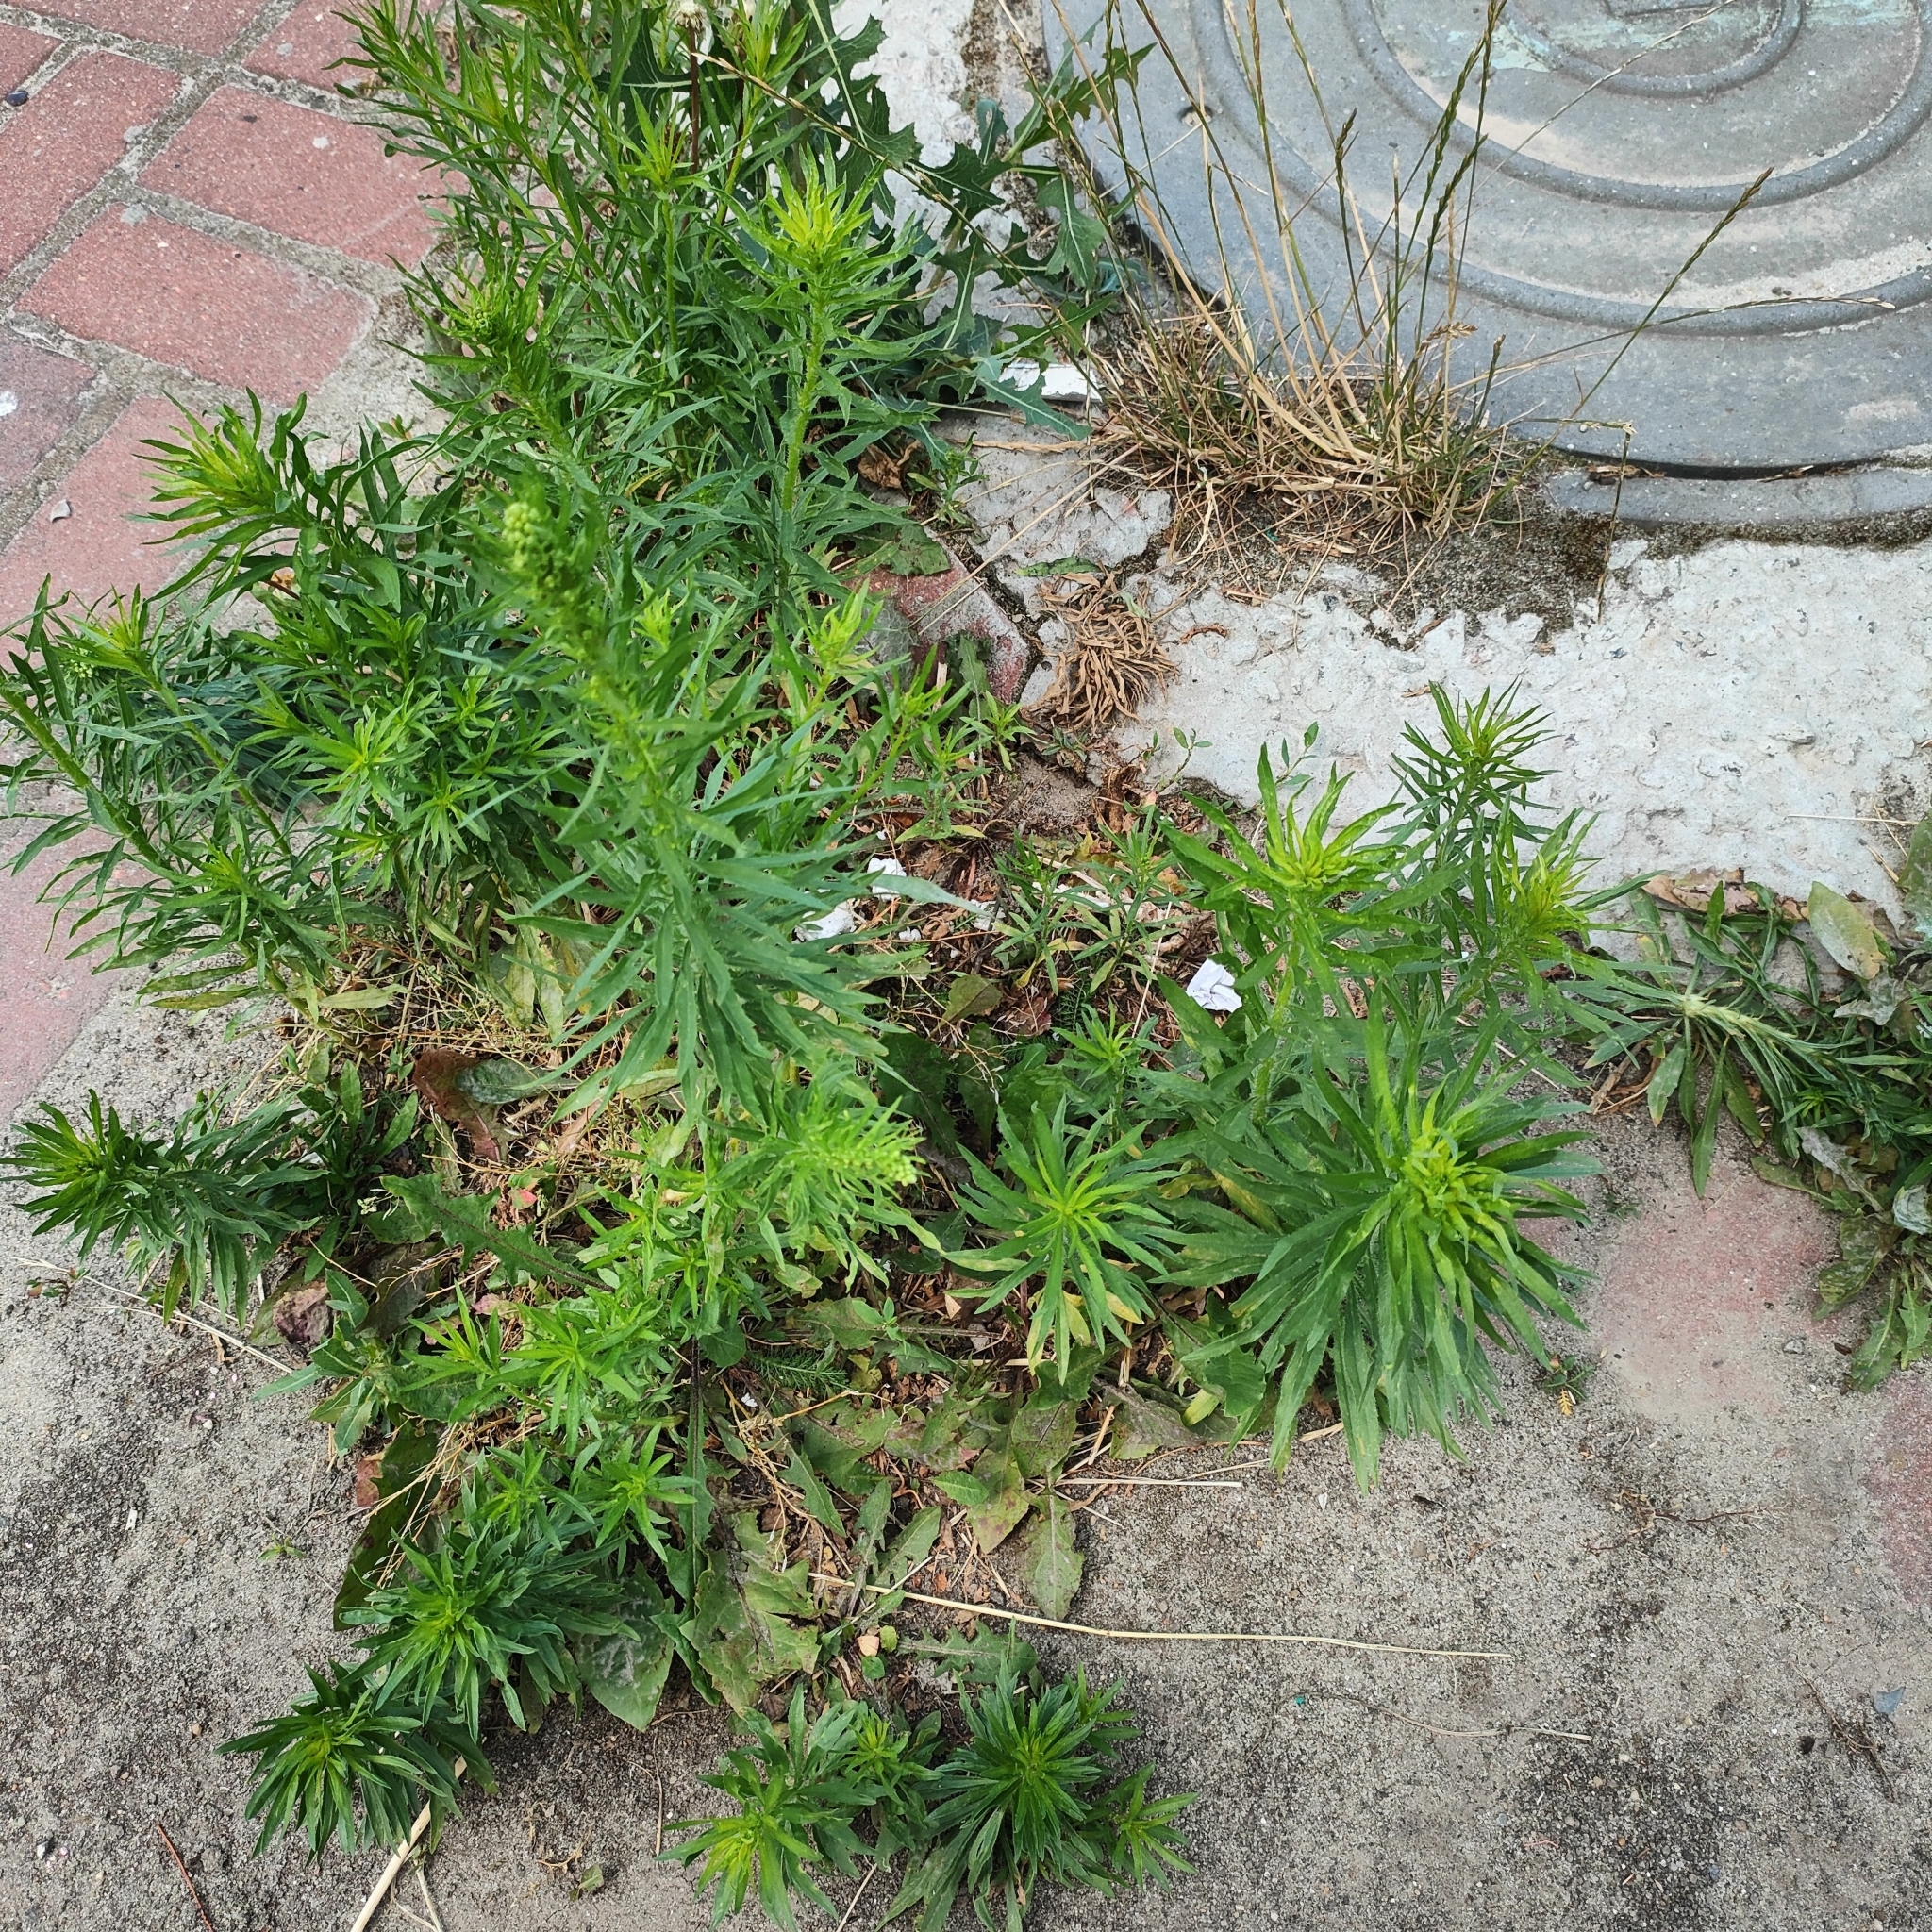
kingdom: Plantae
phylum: Tracheophyta
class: Magnoliopsida
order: Asterales
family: Asteraceae
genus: Erigeron
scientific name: Erigeron canadensis
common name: Canadian fleabane
